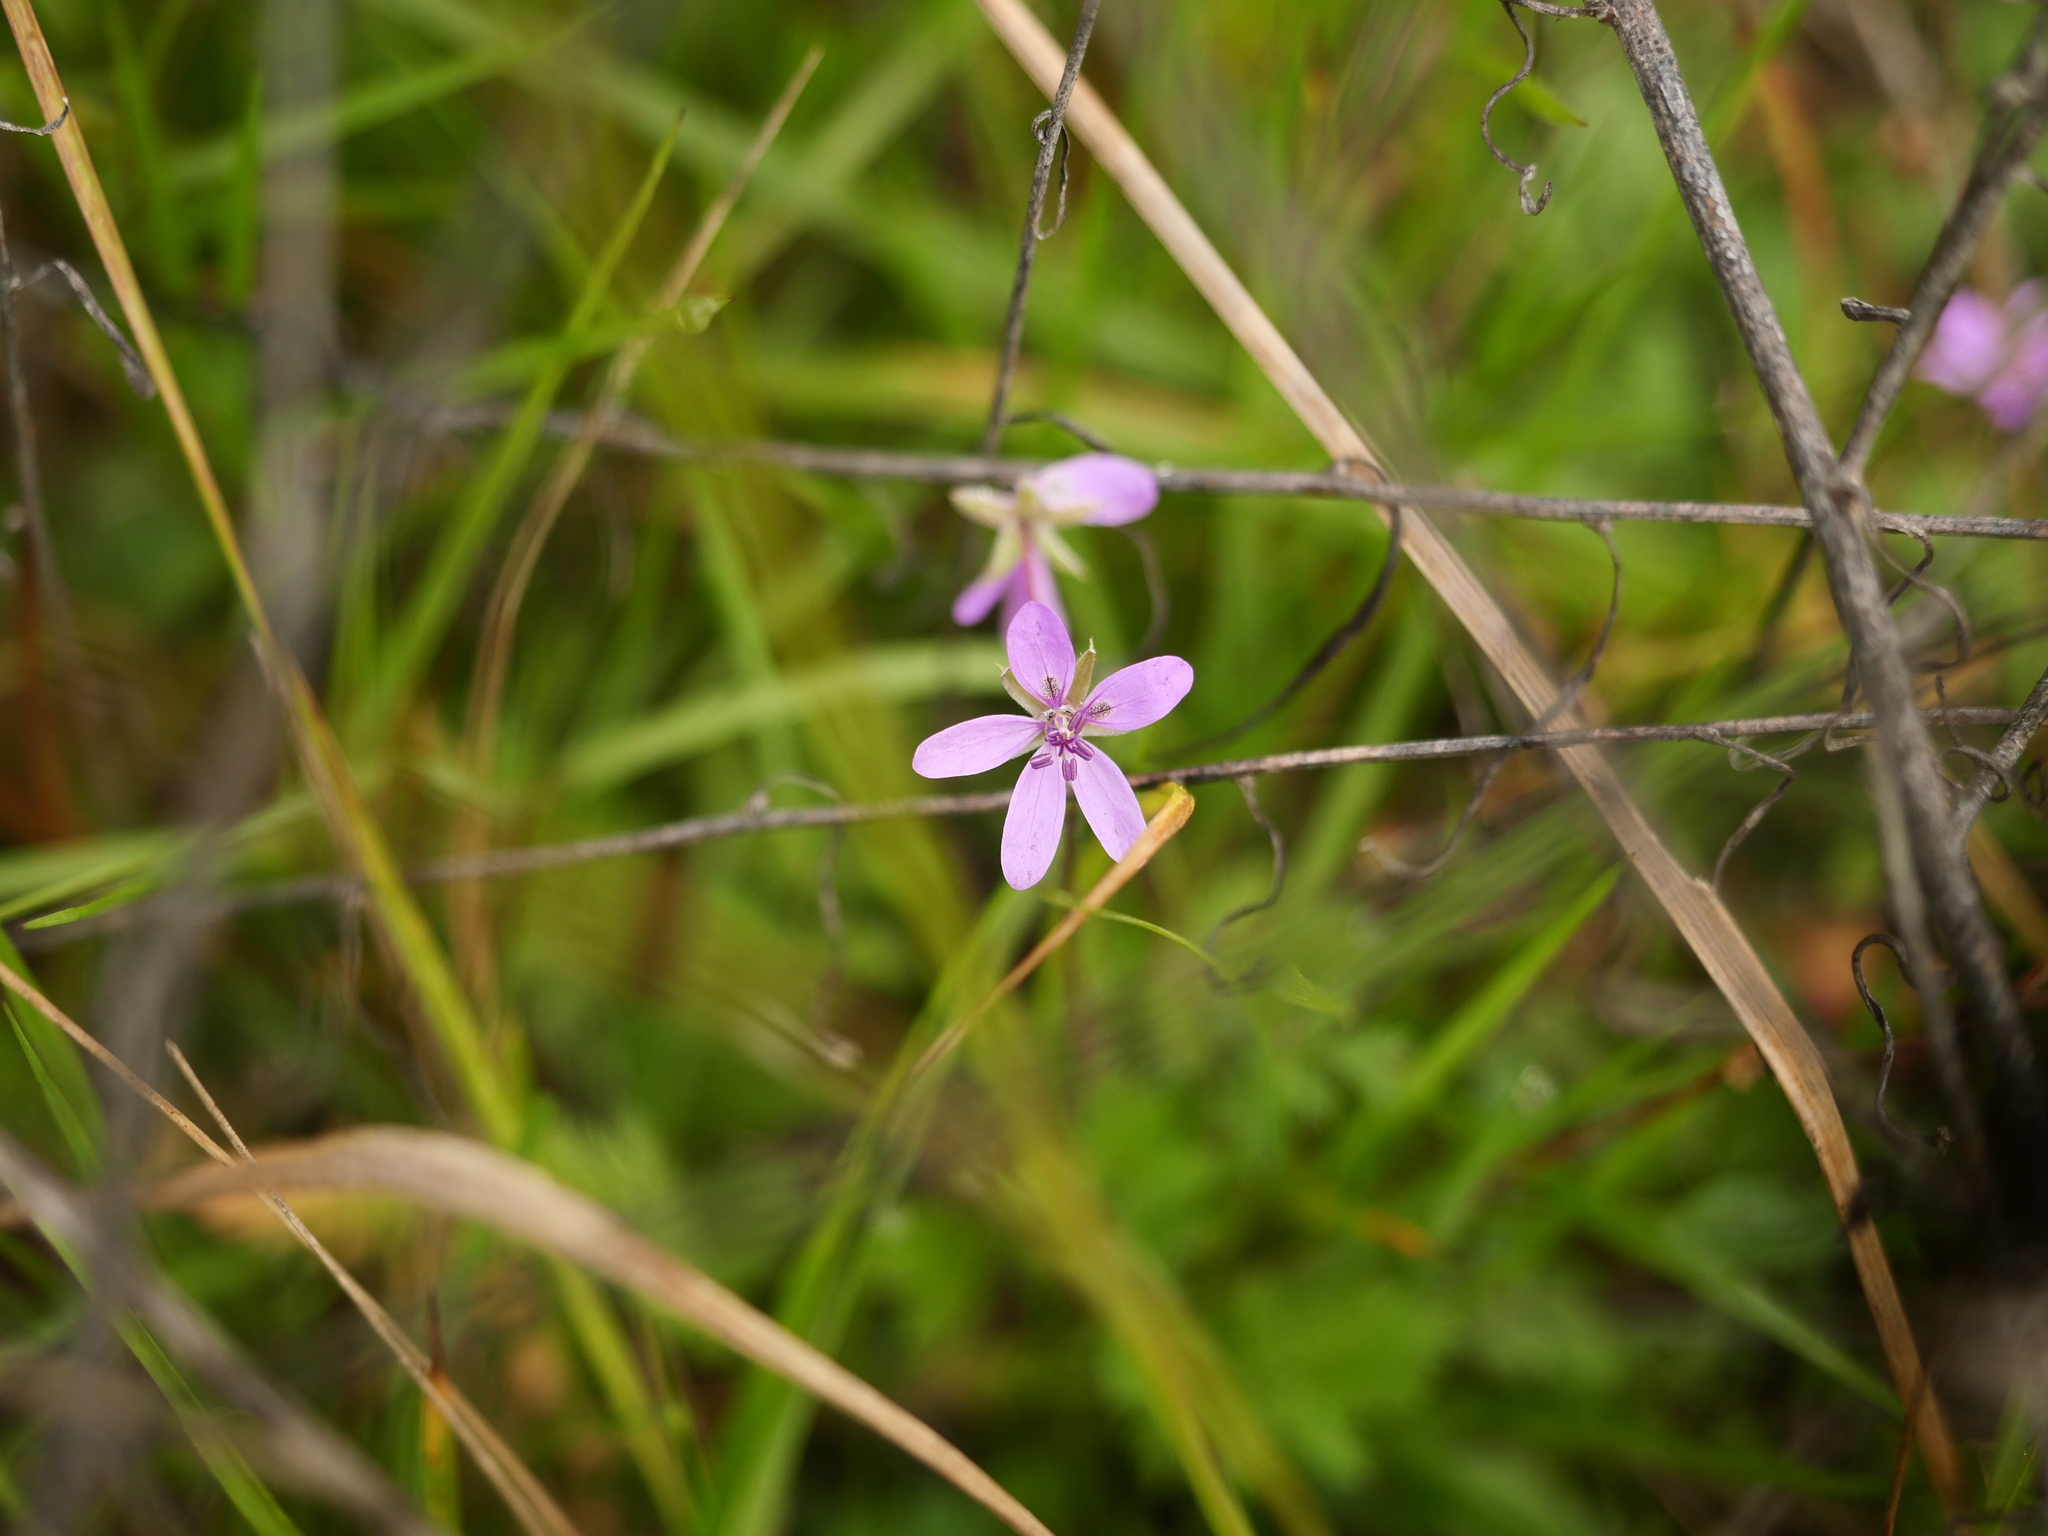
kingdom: Plantae
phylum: Tracheophyta
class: Magnoliopsida
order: Geraniales
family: Geraniaceae
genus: Erodium
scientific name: Erodium cicutarium
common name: Common stork's-bill
